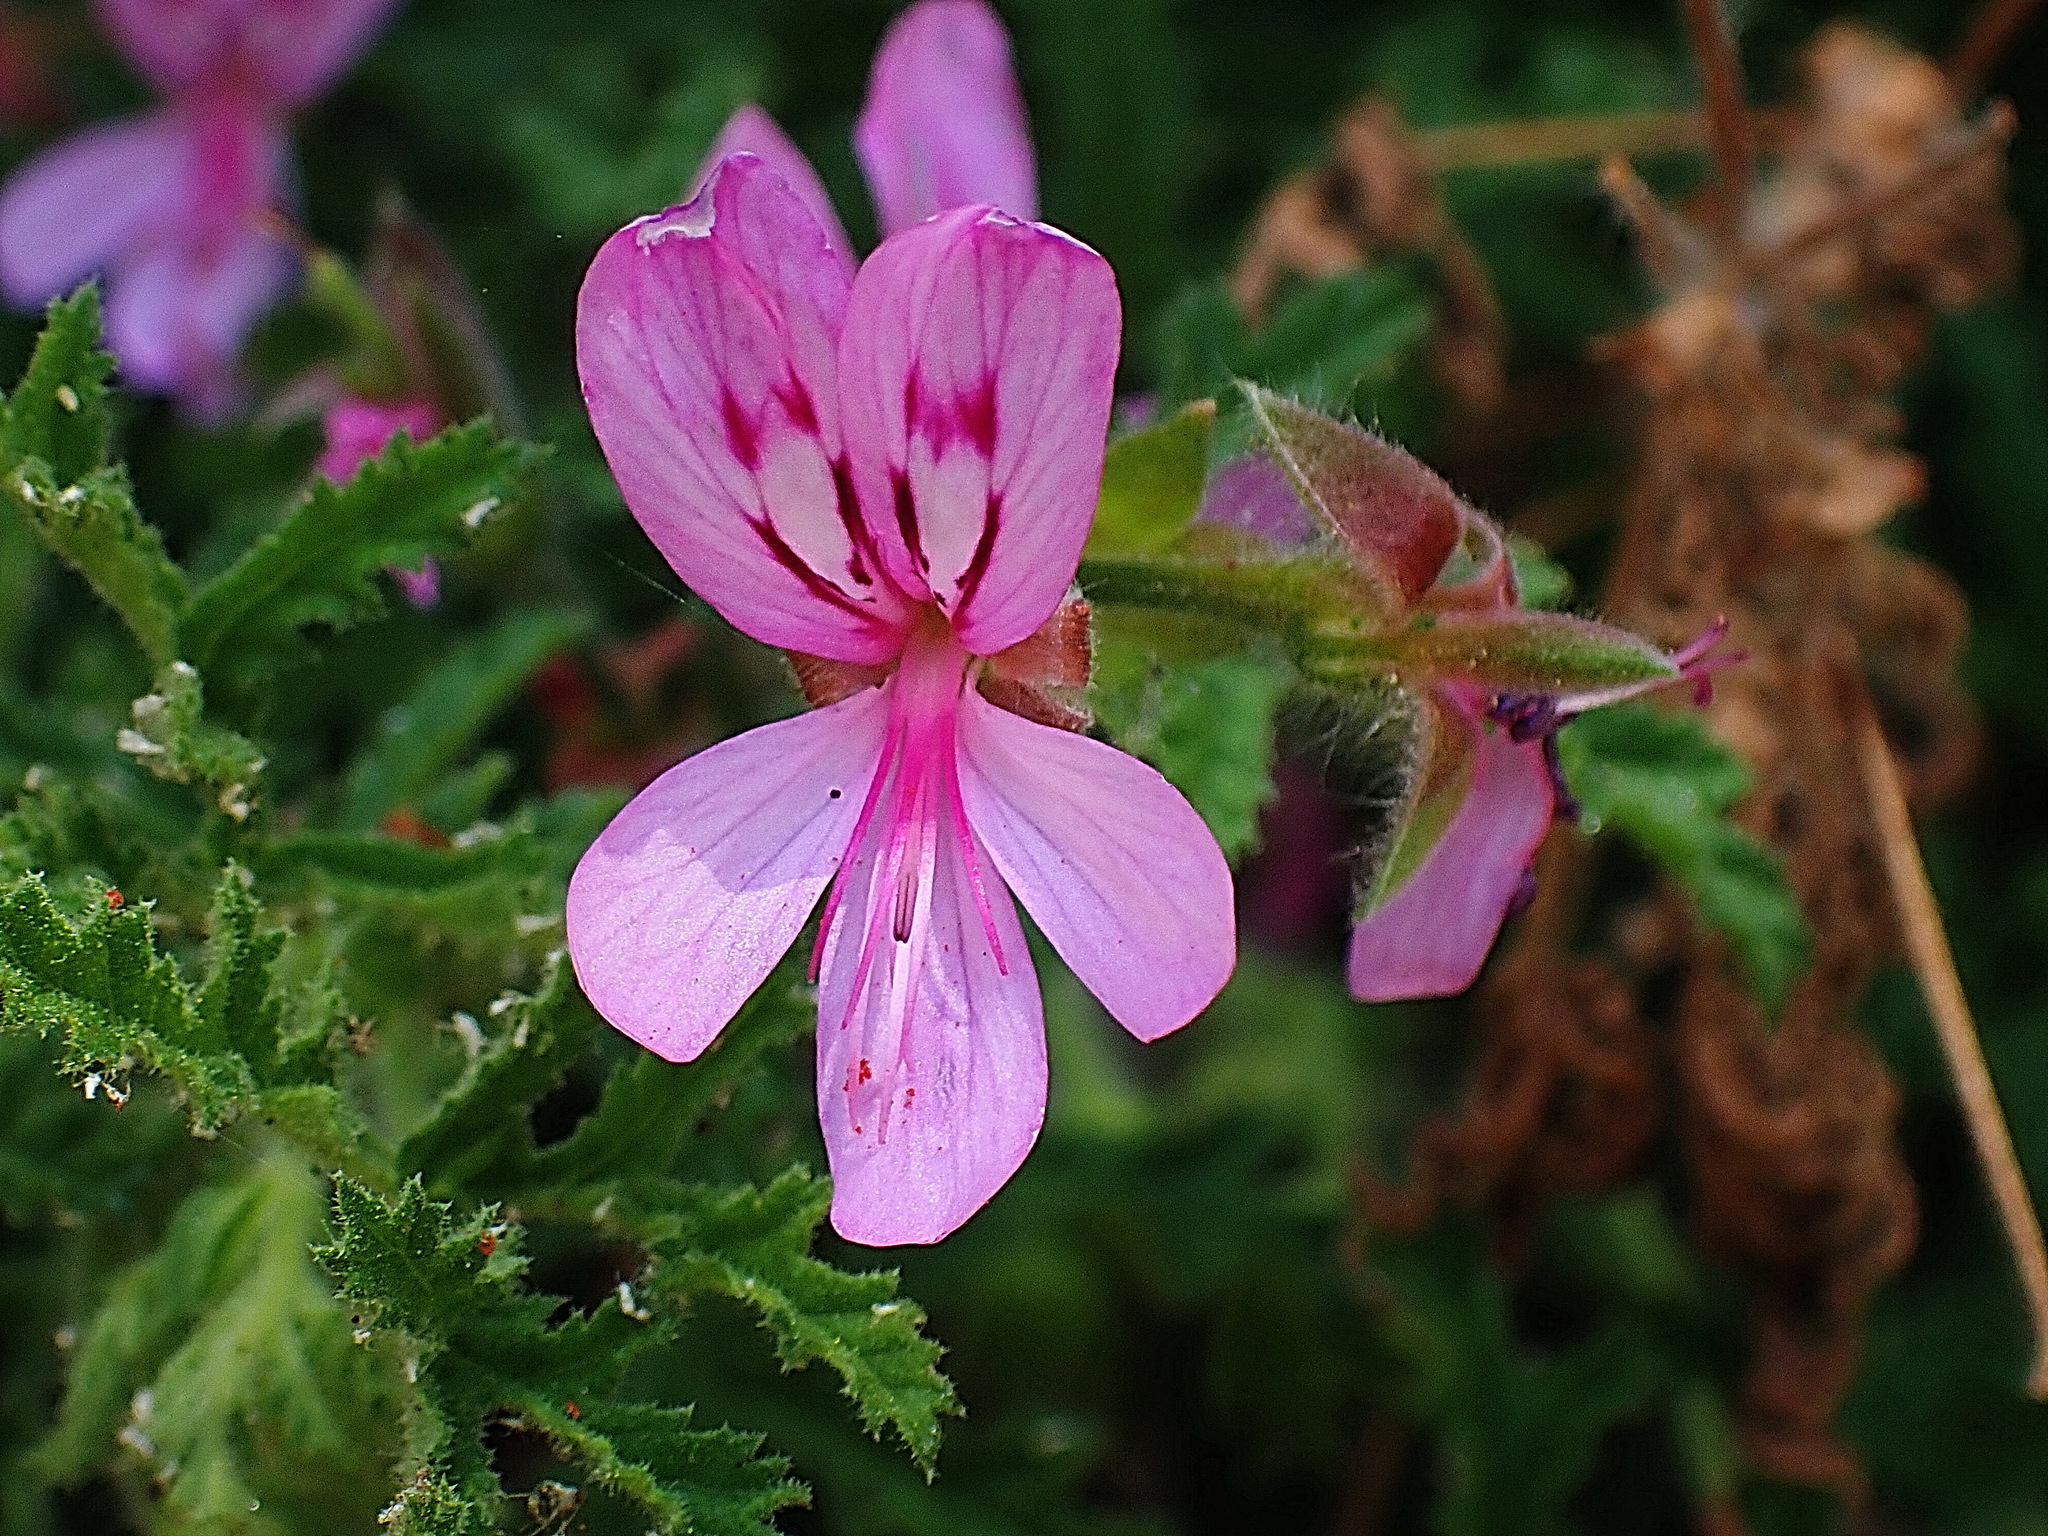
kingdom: Plantae
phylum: Tracheophyta
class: Magnoliopsida
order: Geraniales
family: Geraniaceae
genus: Pelargonium
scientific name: Pelargonium glutinosum
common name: Pheasant-foot geranium
